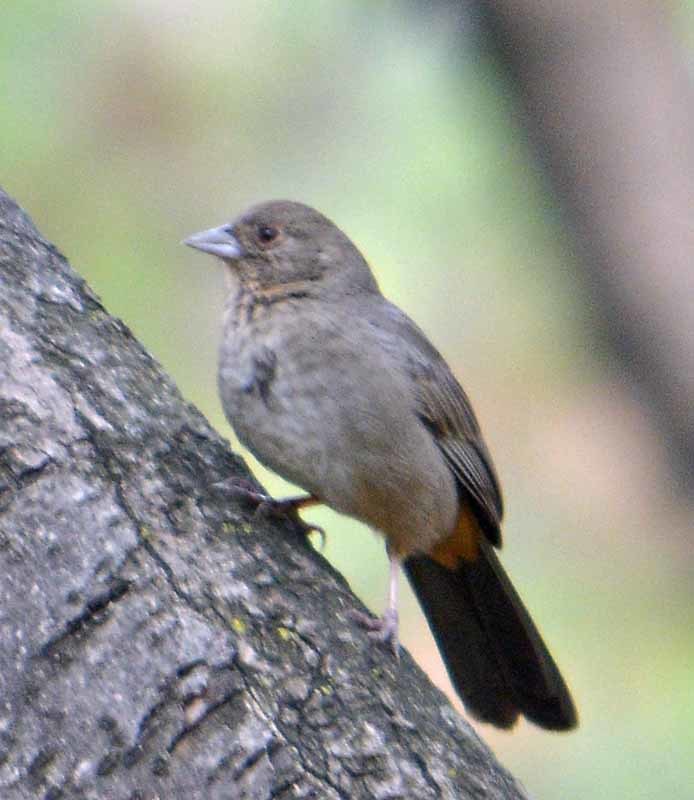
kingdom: Animalia
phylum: Chordata
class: Aves
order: Passeriformes
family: Passerellidae
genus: Melozone
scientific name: Melozone fusca
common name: Canyon towhee
